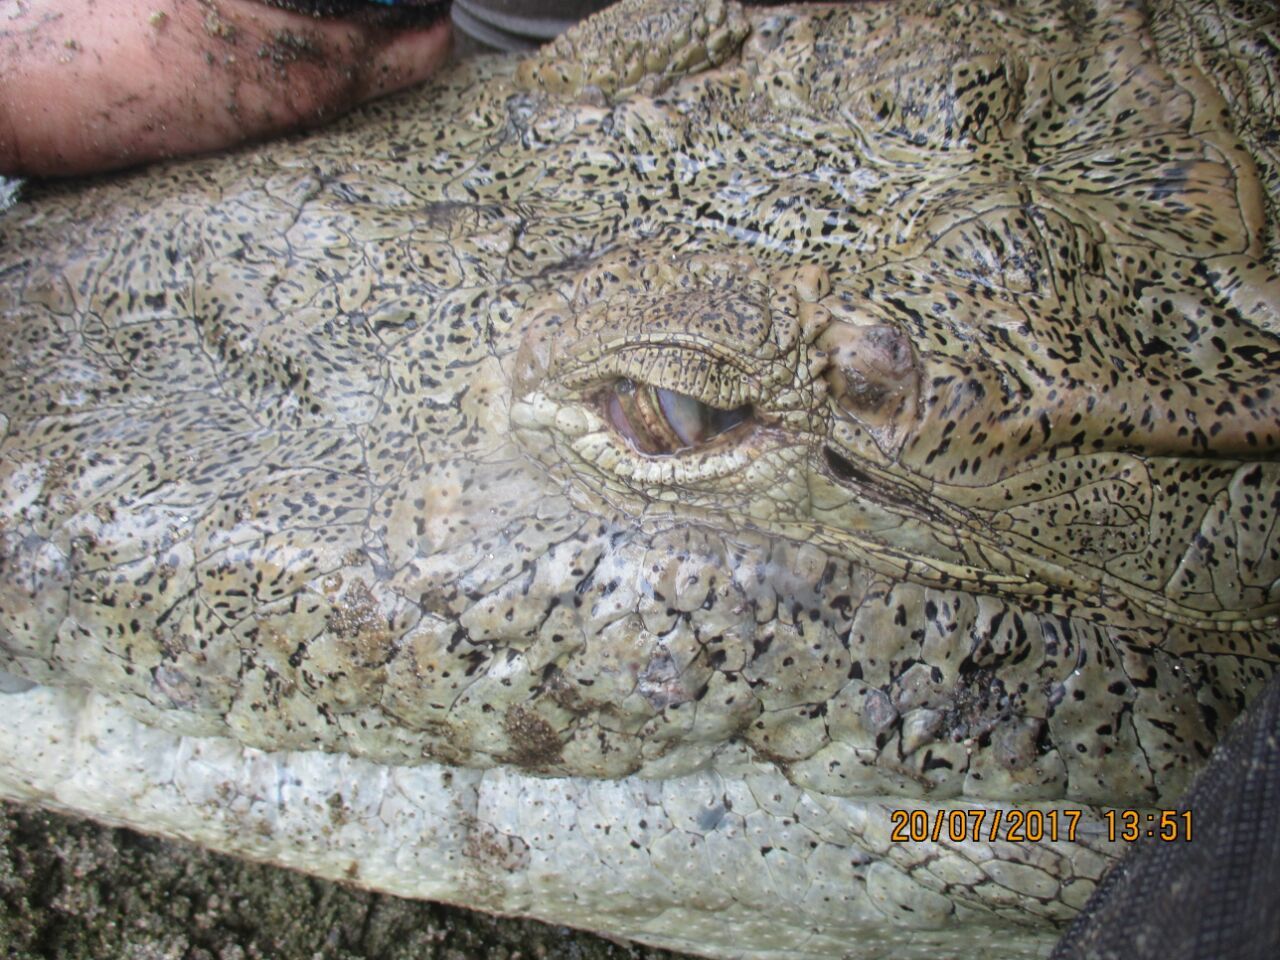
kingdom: Animalia
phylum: Chordata
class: Crocodylia
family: Crocodylidae
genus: Crocodylus
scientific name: Crocodylus acutus
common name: American crocodile
